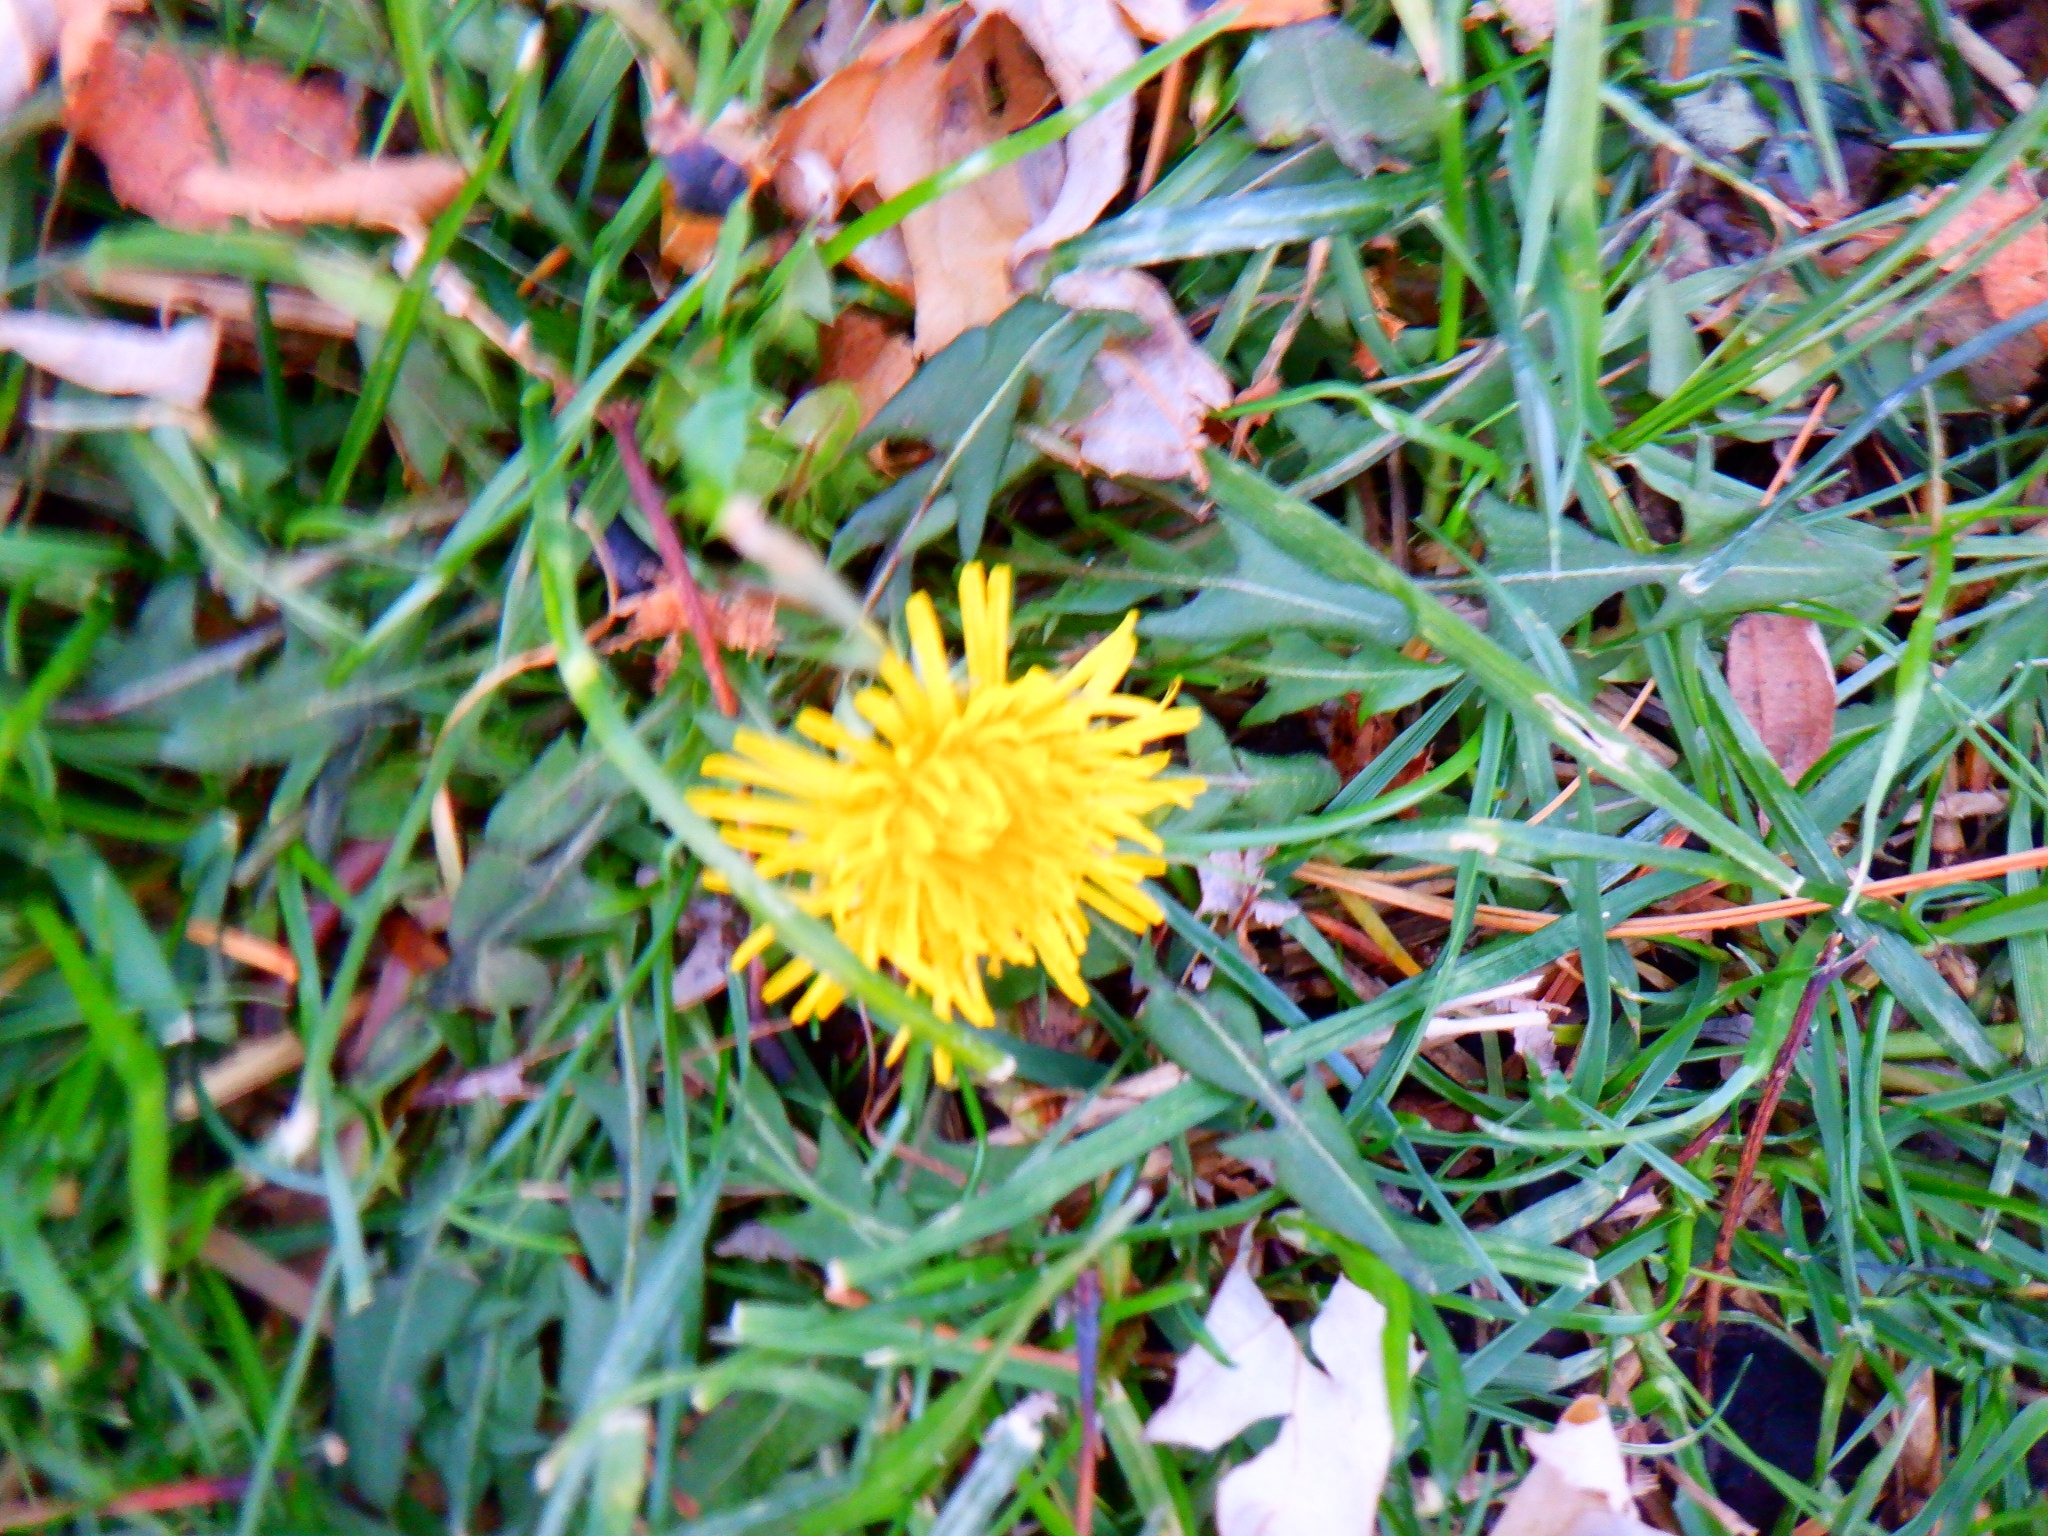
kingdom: Plantae
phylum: Tracheophyta
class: Magnoliopsida
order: Asterales
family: Asteraceae
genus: Taraxacum
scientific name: Taraxacum officinale
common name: Common dandelion
